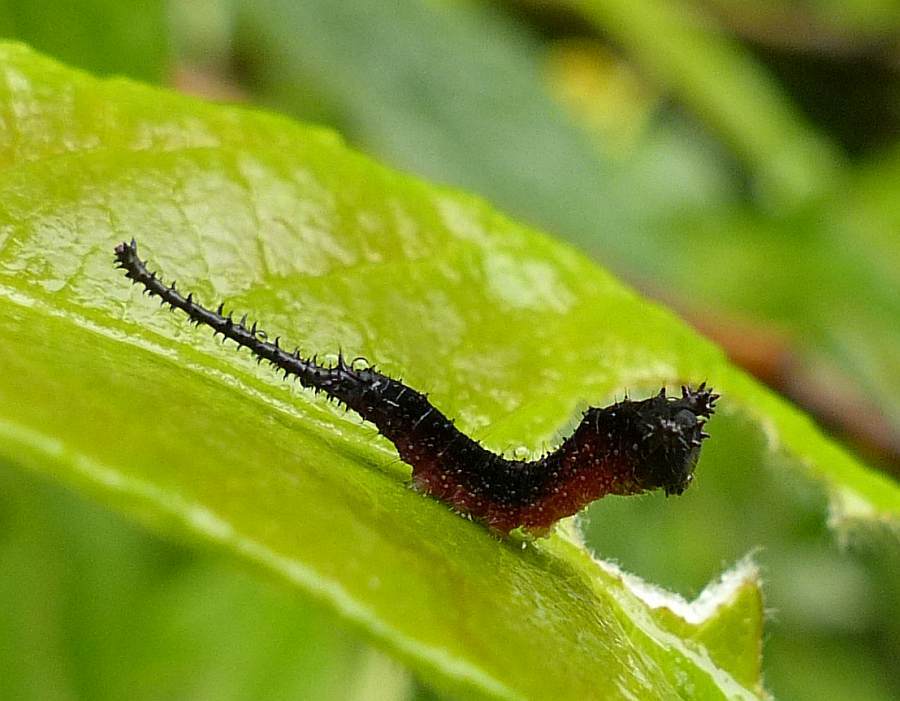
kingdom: Animalia
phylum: Arthropoda
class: Insecta
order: Lepidoptera
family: Notodontidae
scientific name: Notodontidae
